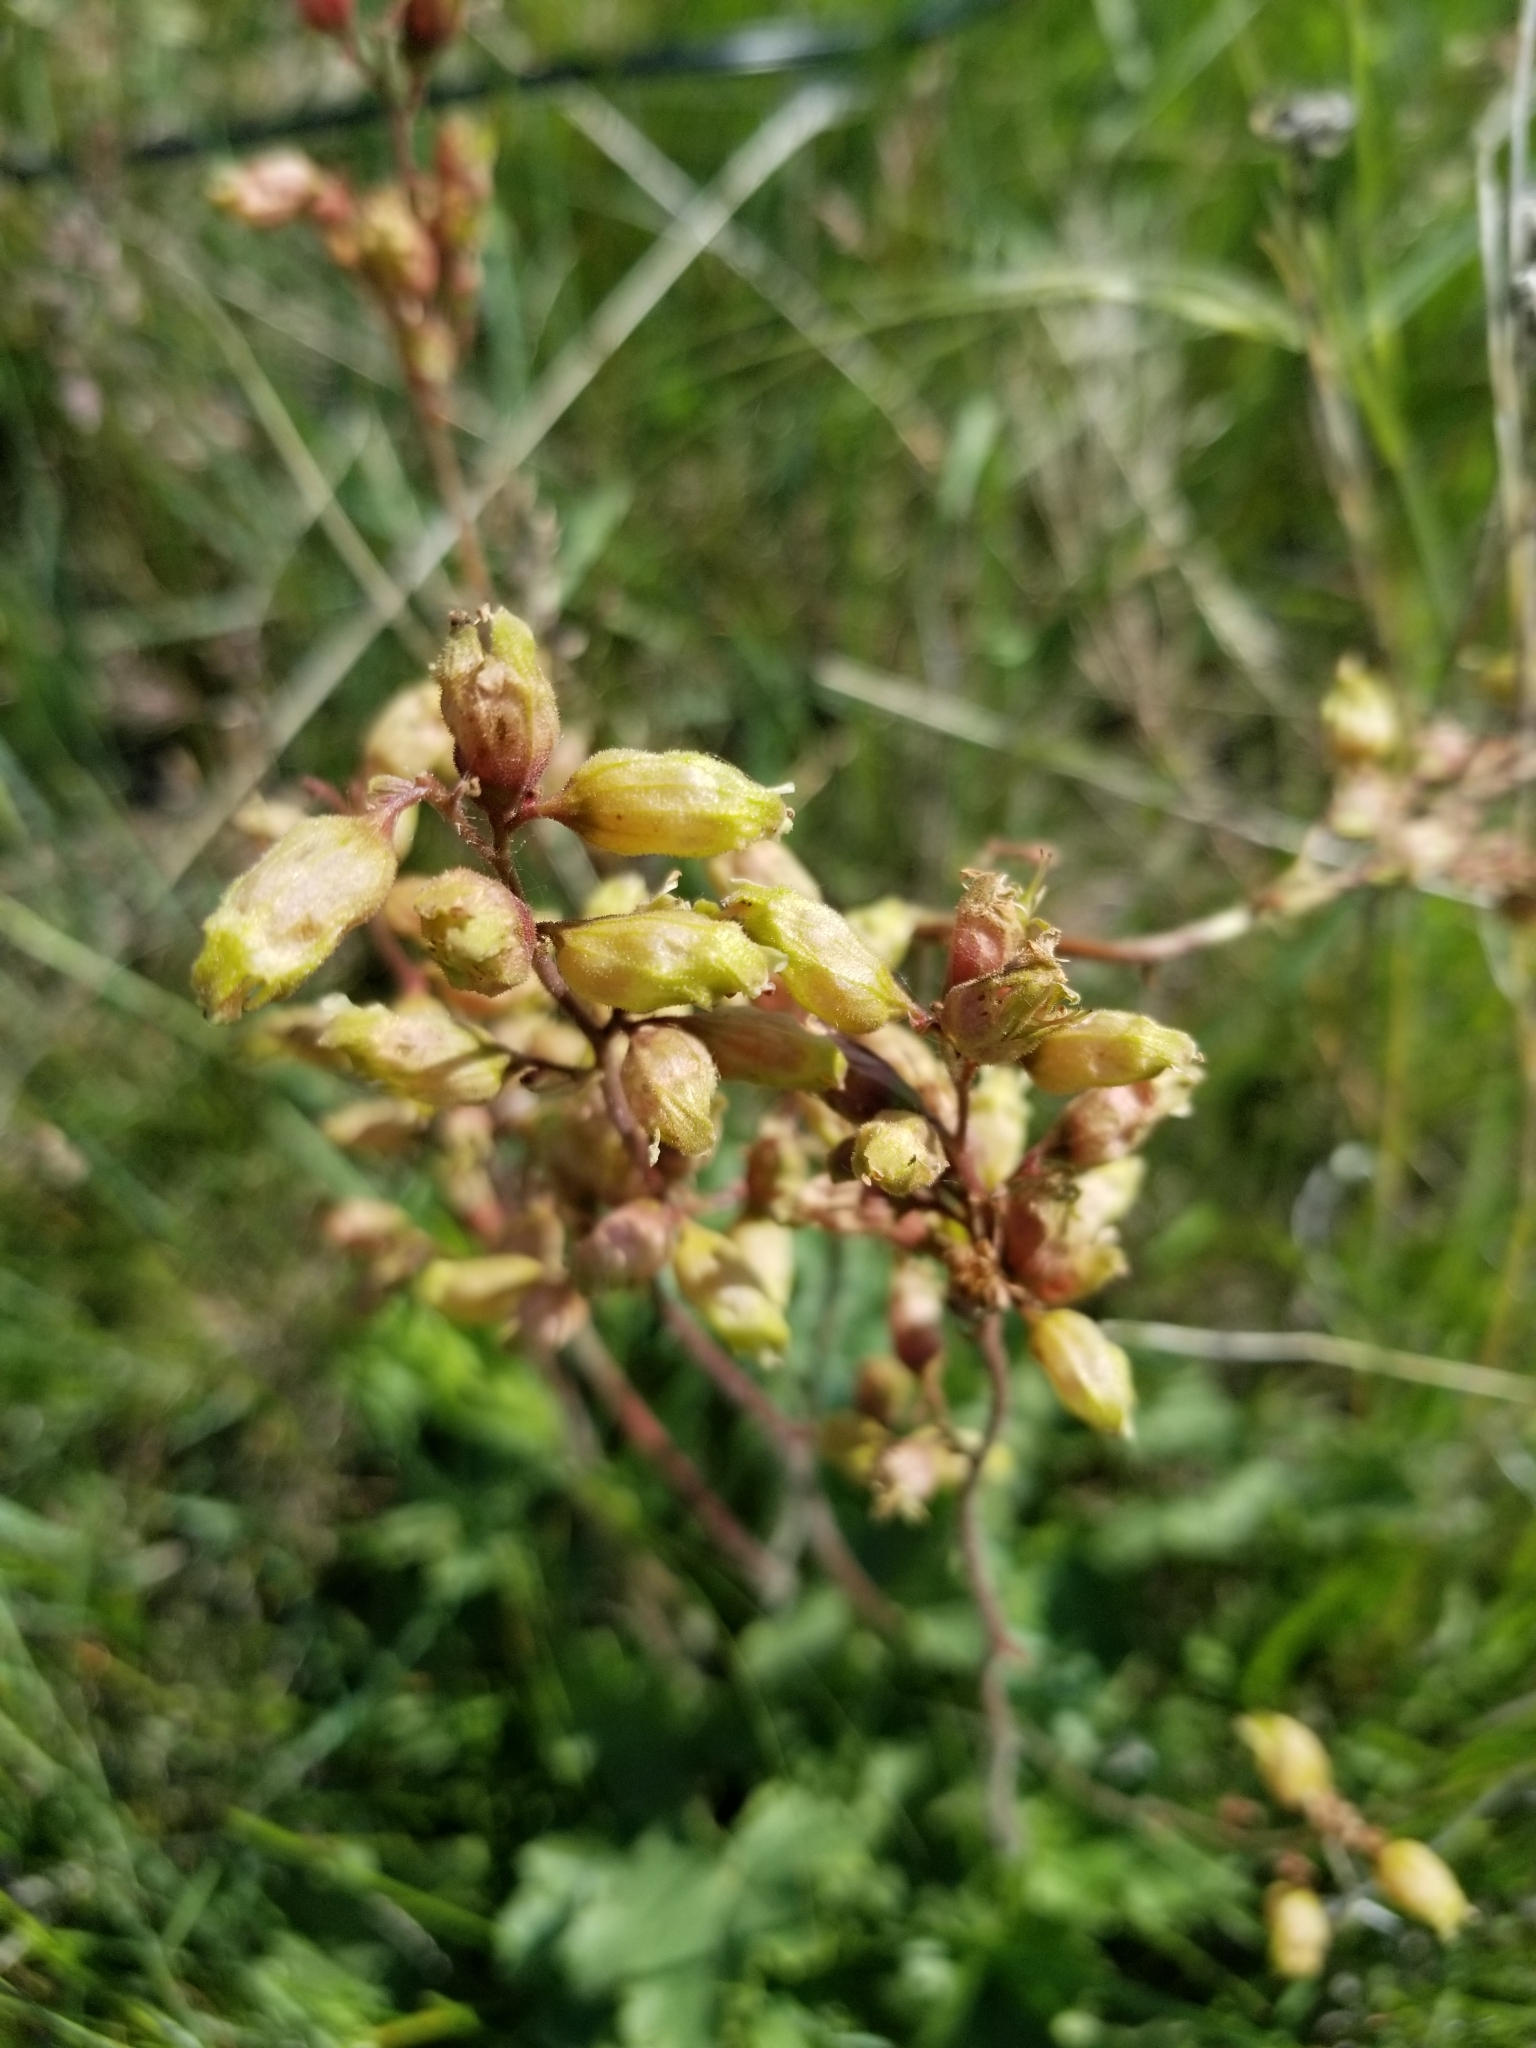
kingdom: Plantae
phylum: Tracheophyta
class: Magnoliopsida
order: Saxifragales
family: Saxifragaceae
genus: Heuchera
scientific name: Heuchera richardsonii
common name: Richardson's alumroot
